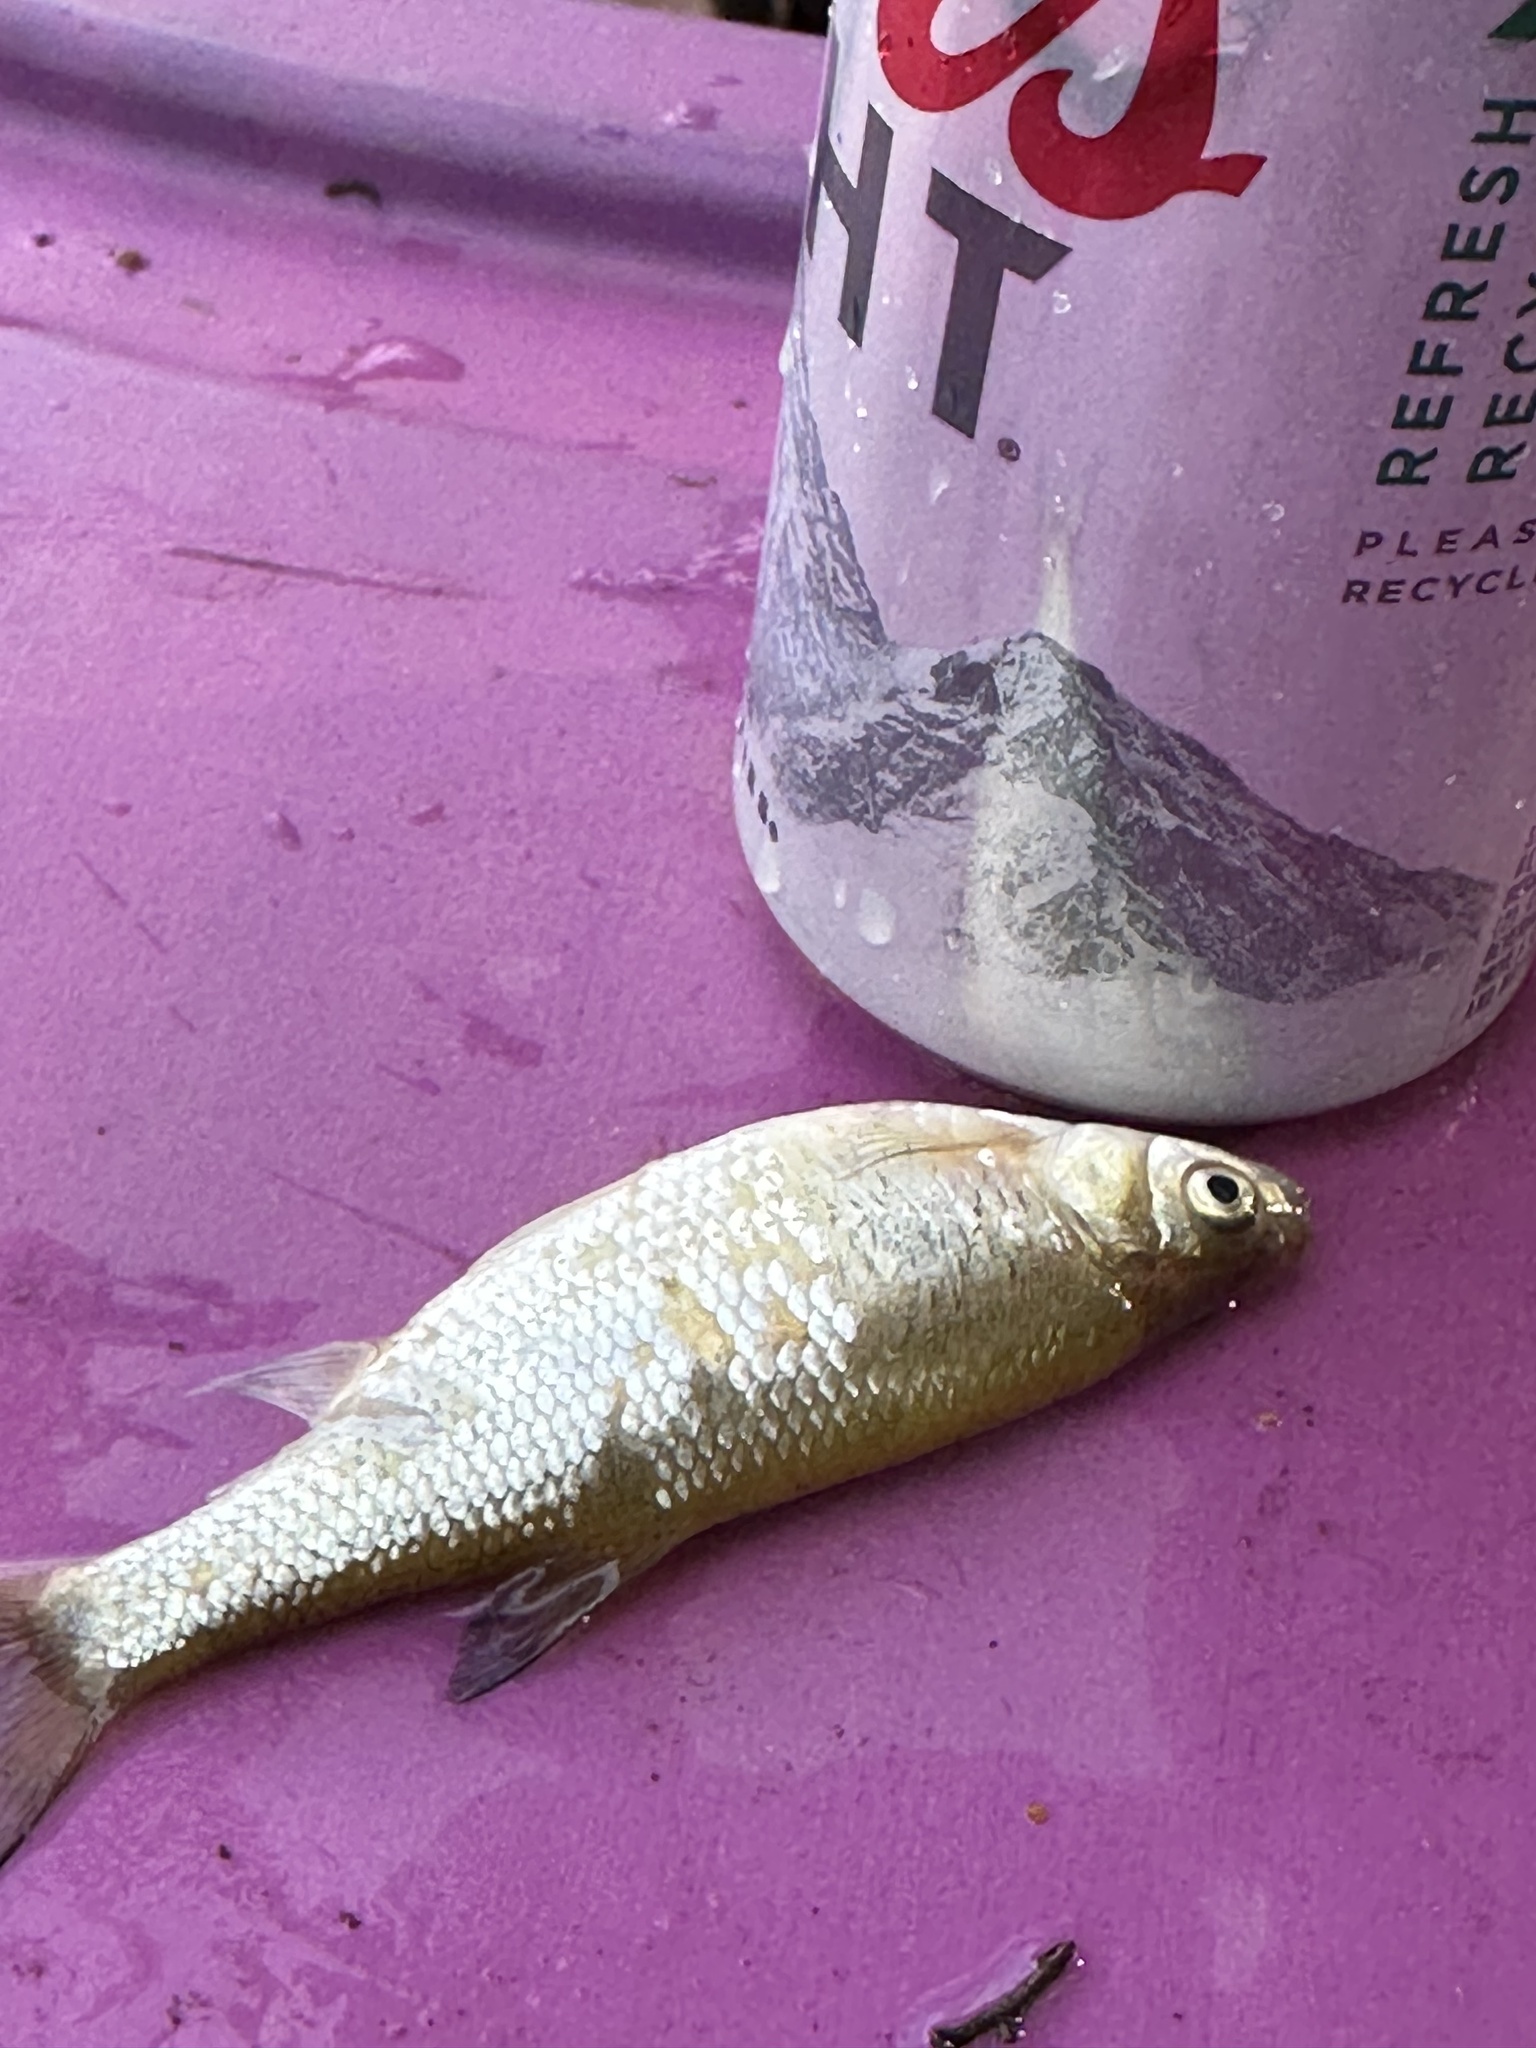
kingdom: Animalia
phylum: Chordata
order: Cypriniformes
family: Cyprinidae
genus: Notemigonus
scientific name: Notemigonus crysoleucas
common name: Golden shiner
